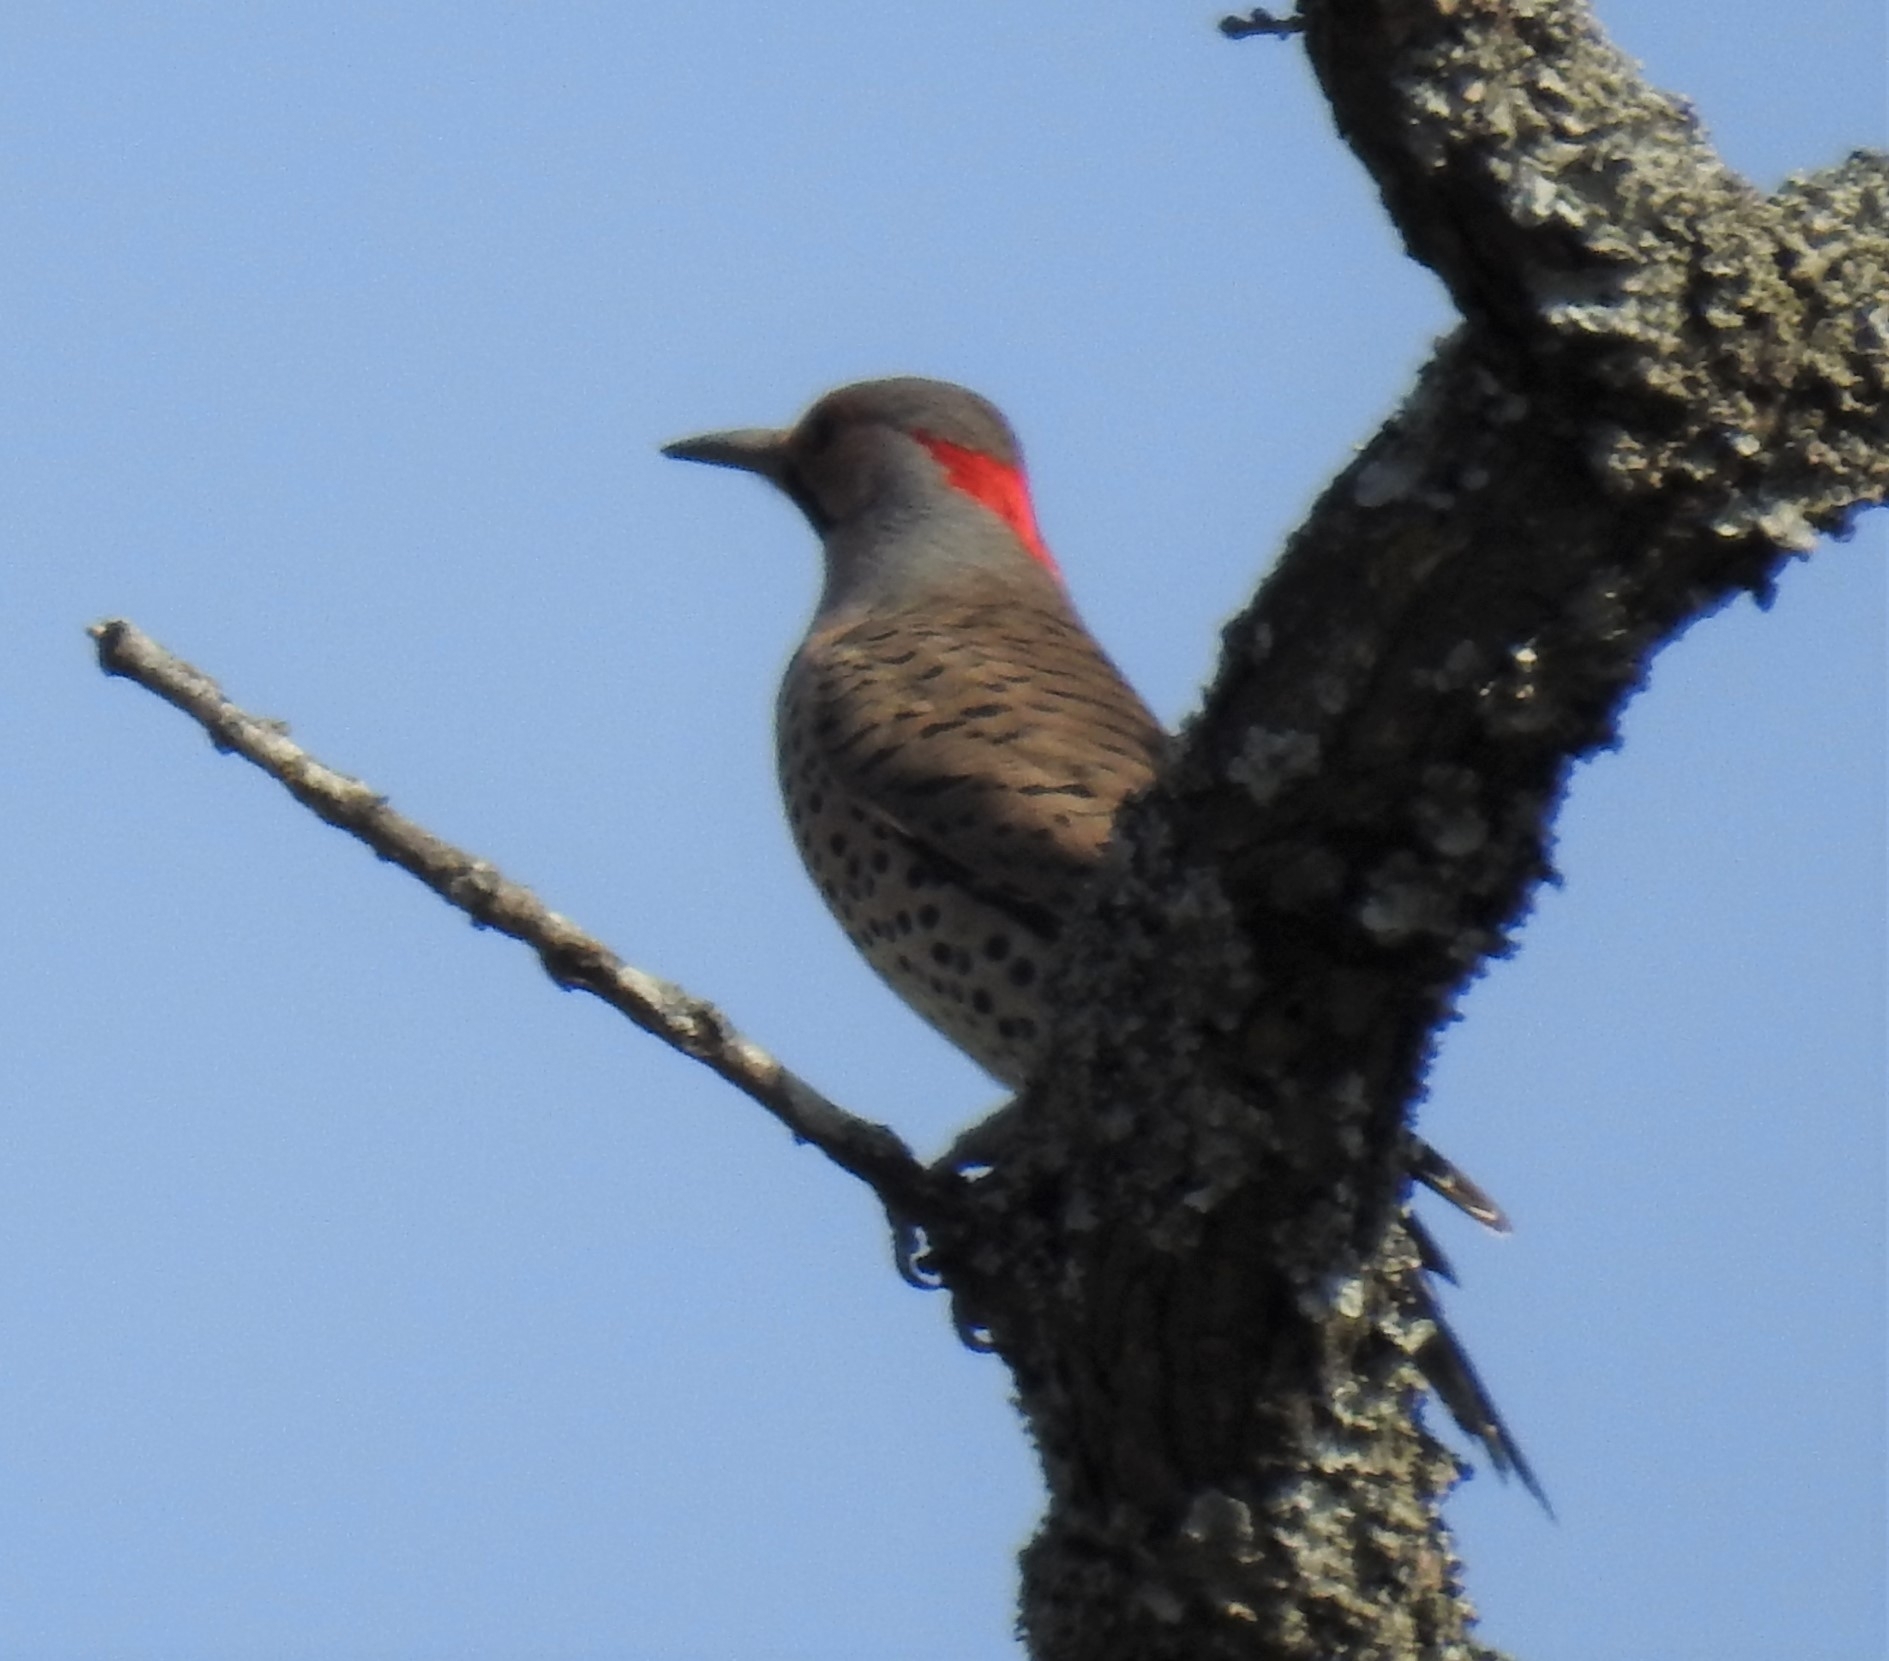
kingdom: Animalia
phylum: Chordata
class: Aves
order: Piciformes
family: Picidae
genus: Colaptes
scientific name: Colaptes auratus
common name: Northern flicker
